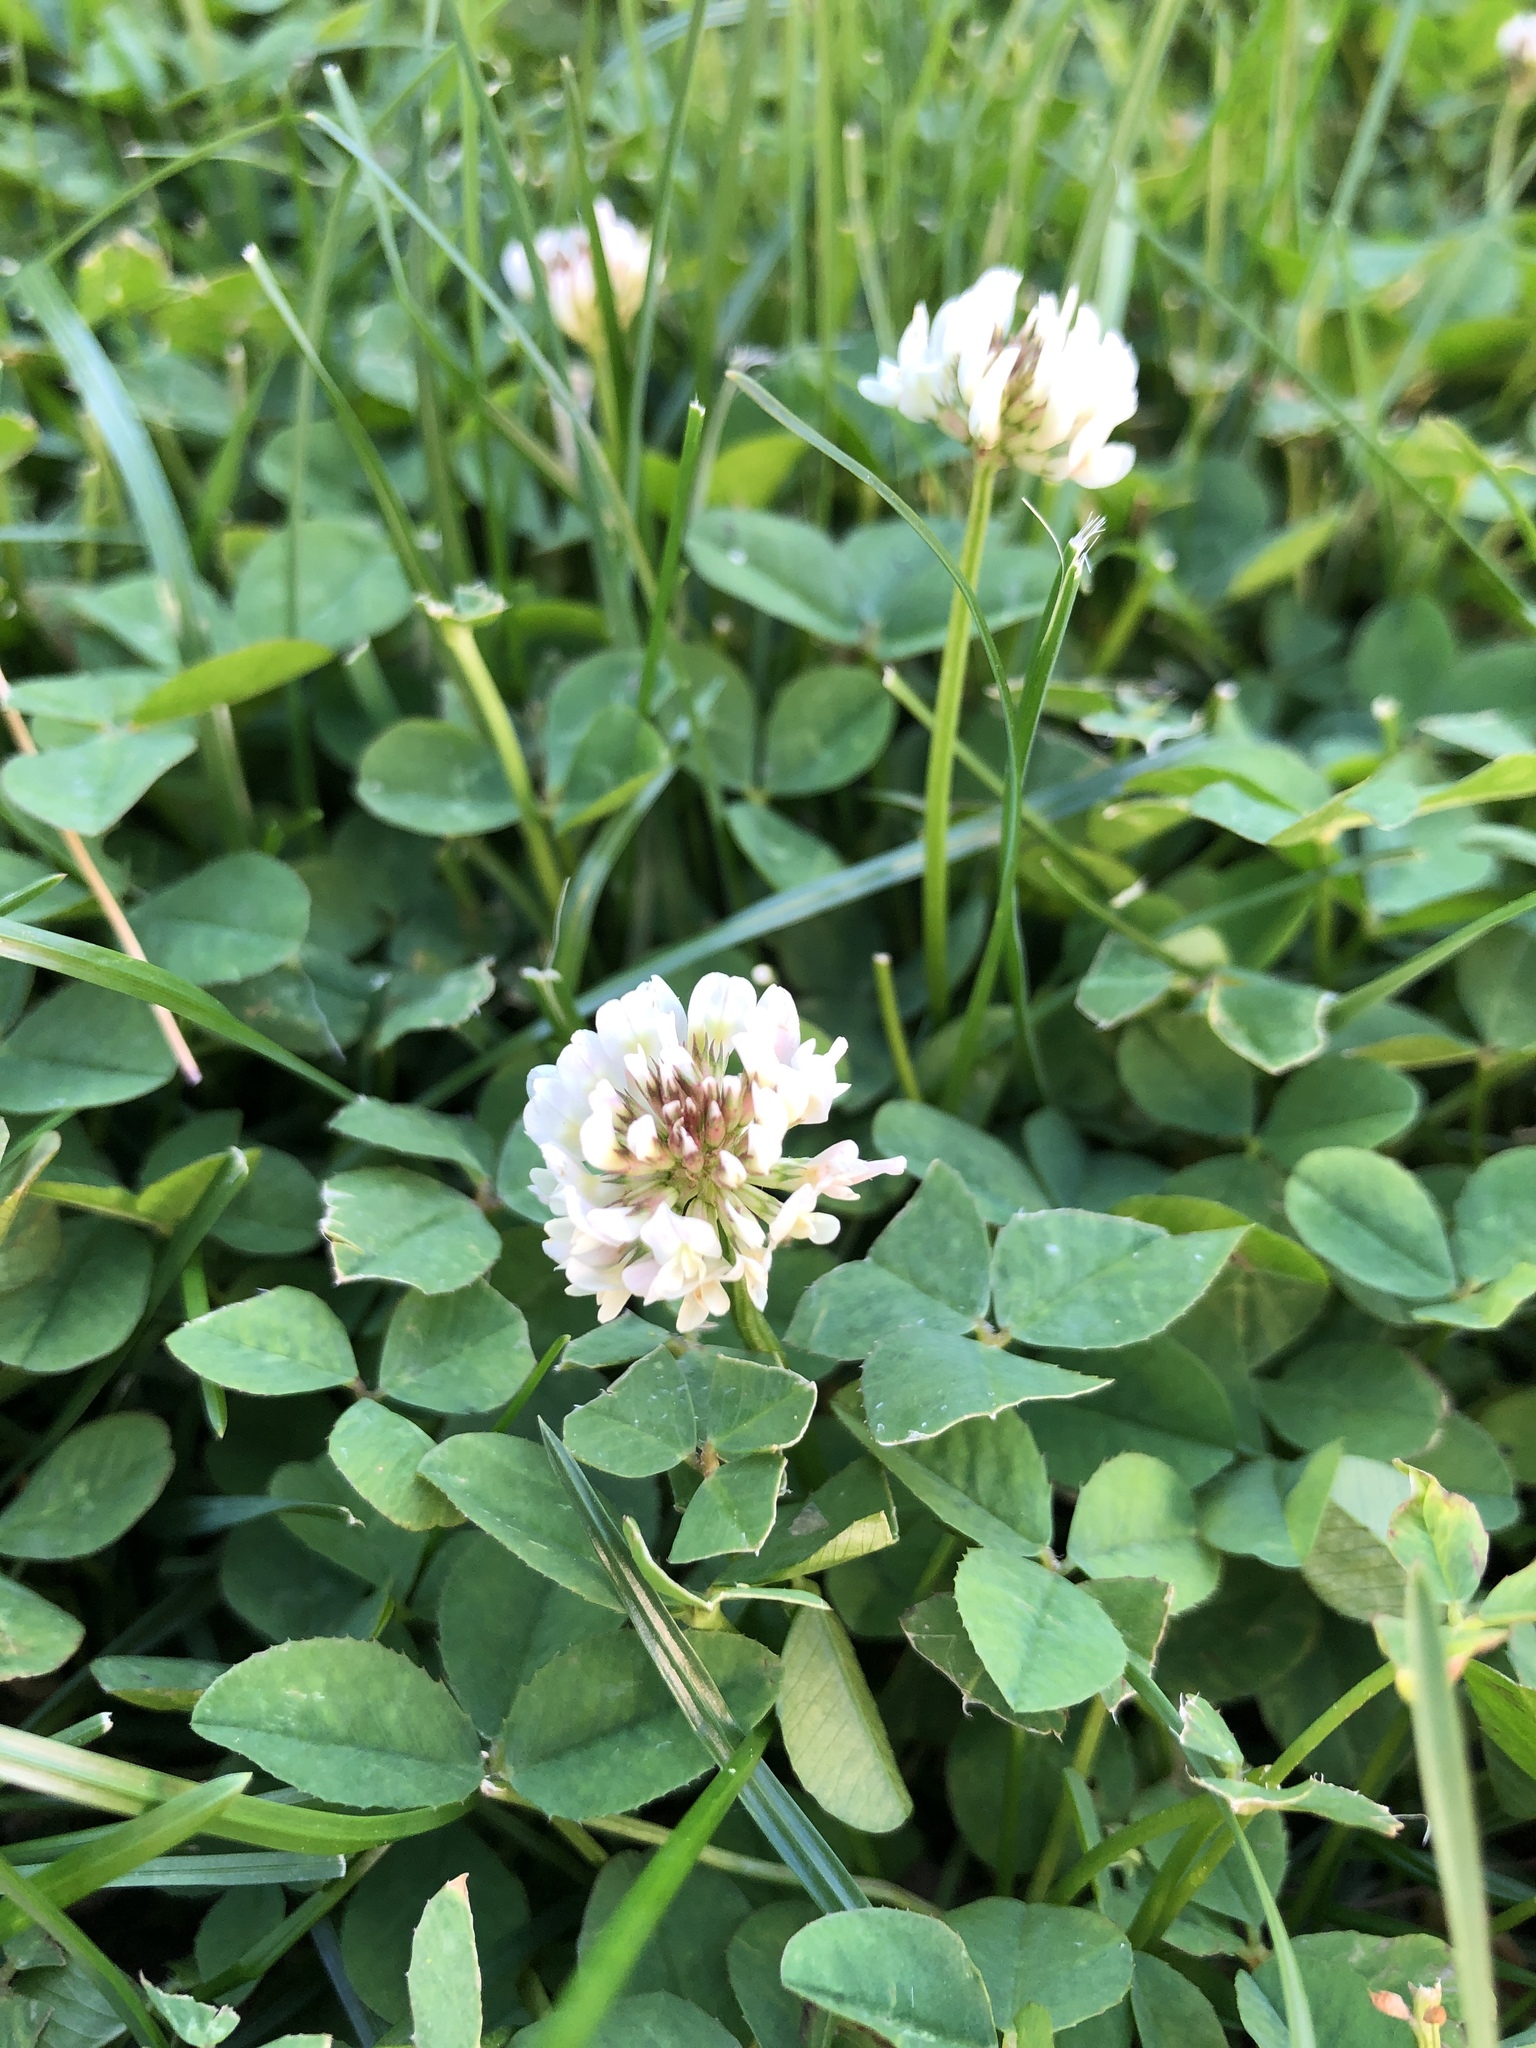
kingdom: Plantae
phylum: Tracheophyta
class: Magnoliopsida
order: Fabales
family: Fabaceae
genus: Trifolium
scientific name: Trifolium repens
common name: White clover
